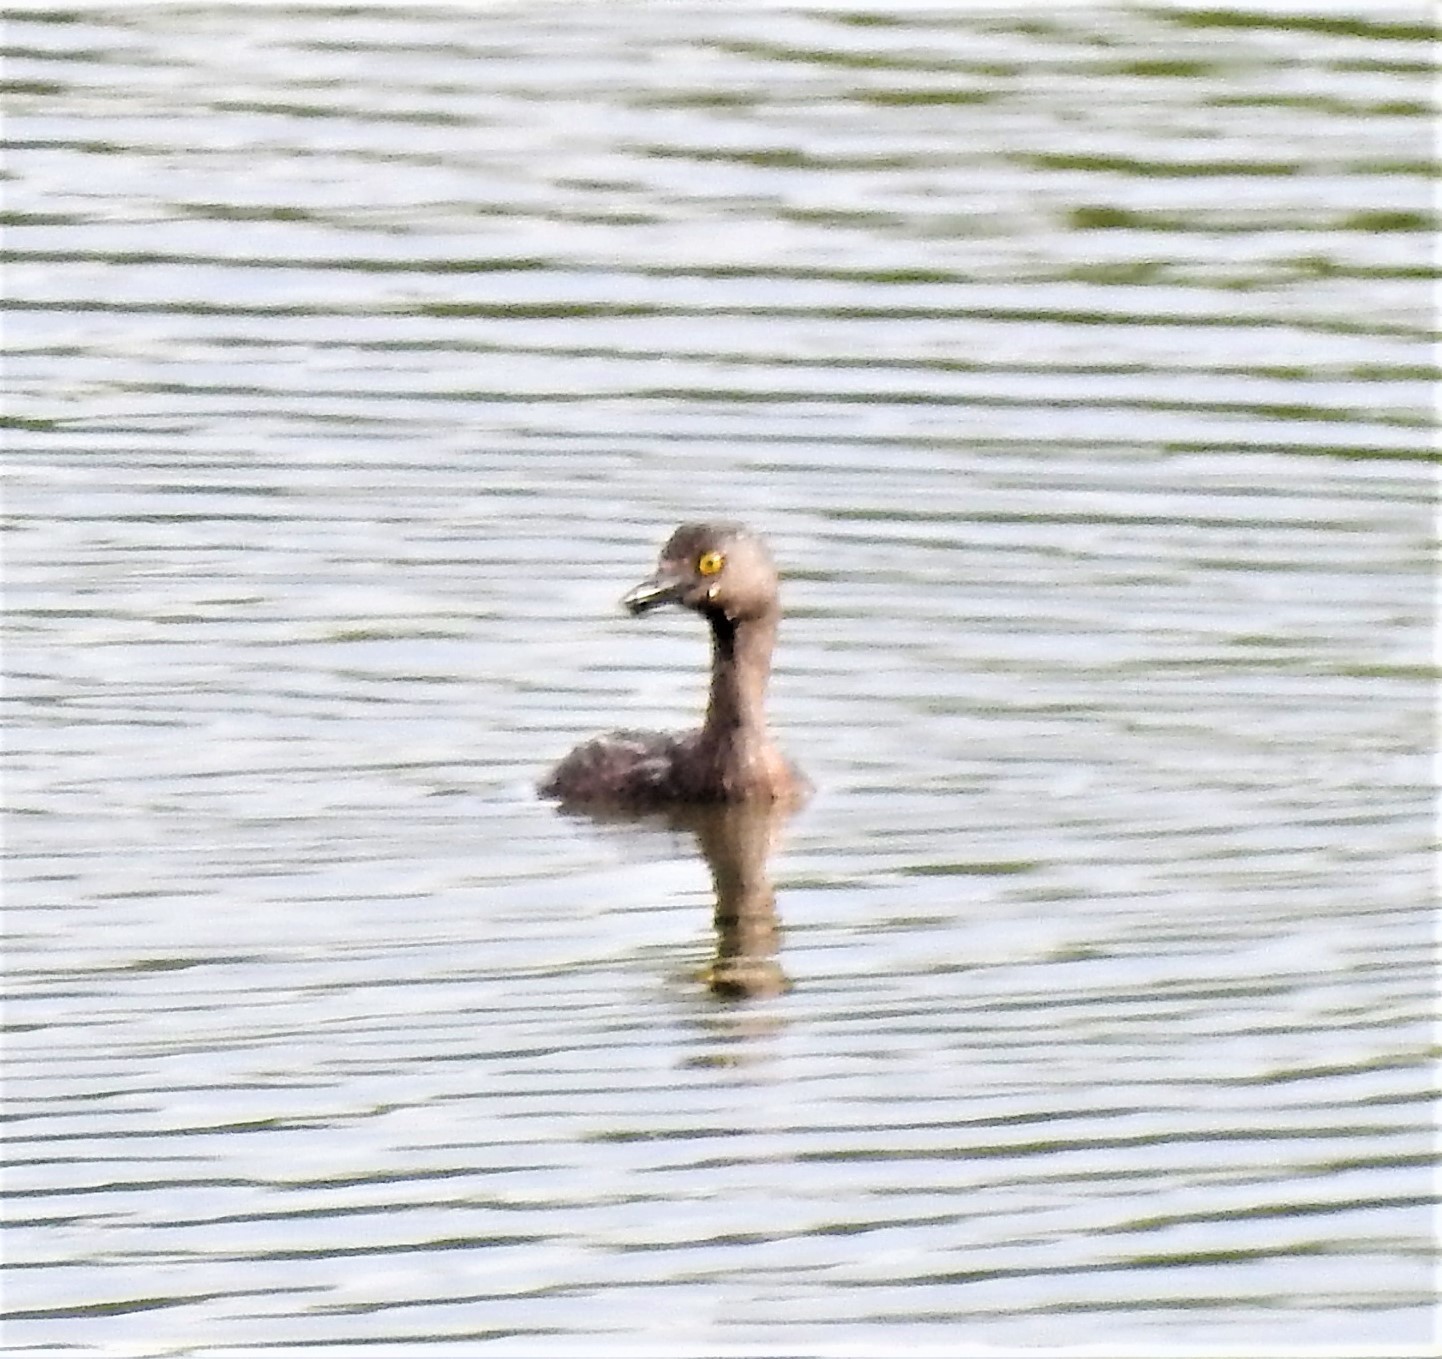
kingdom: Animalia
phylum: Chordata
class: Aves
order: Podicipediformes
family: Podicipedidae
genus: Tachybaptus
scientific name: Tachybaptus dominicus
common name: Least grebe
